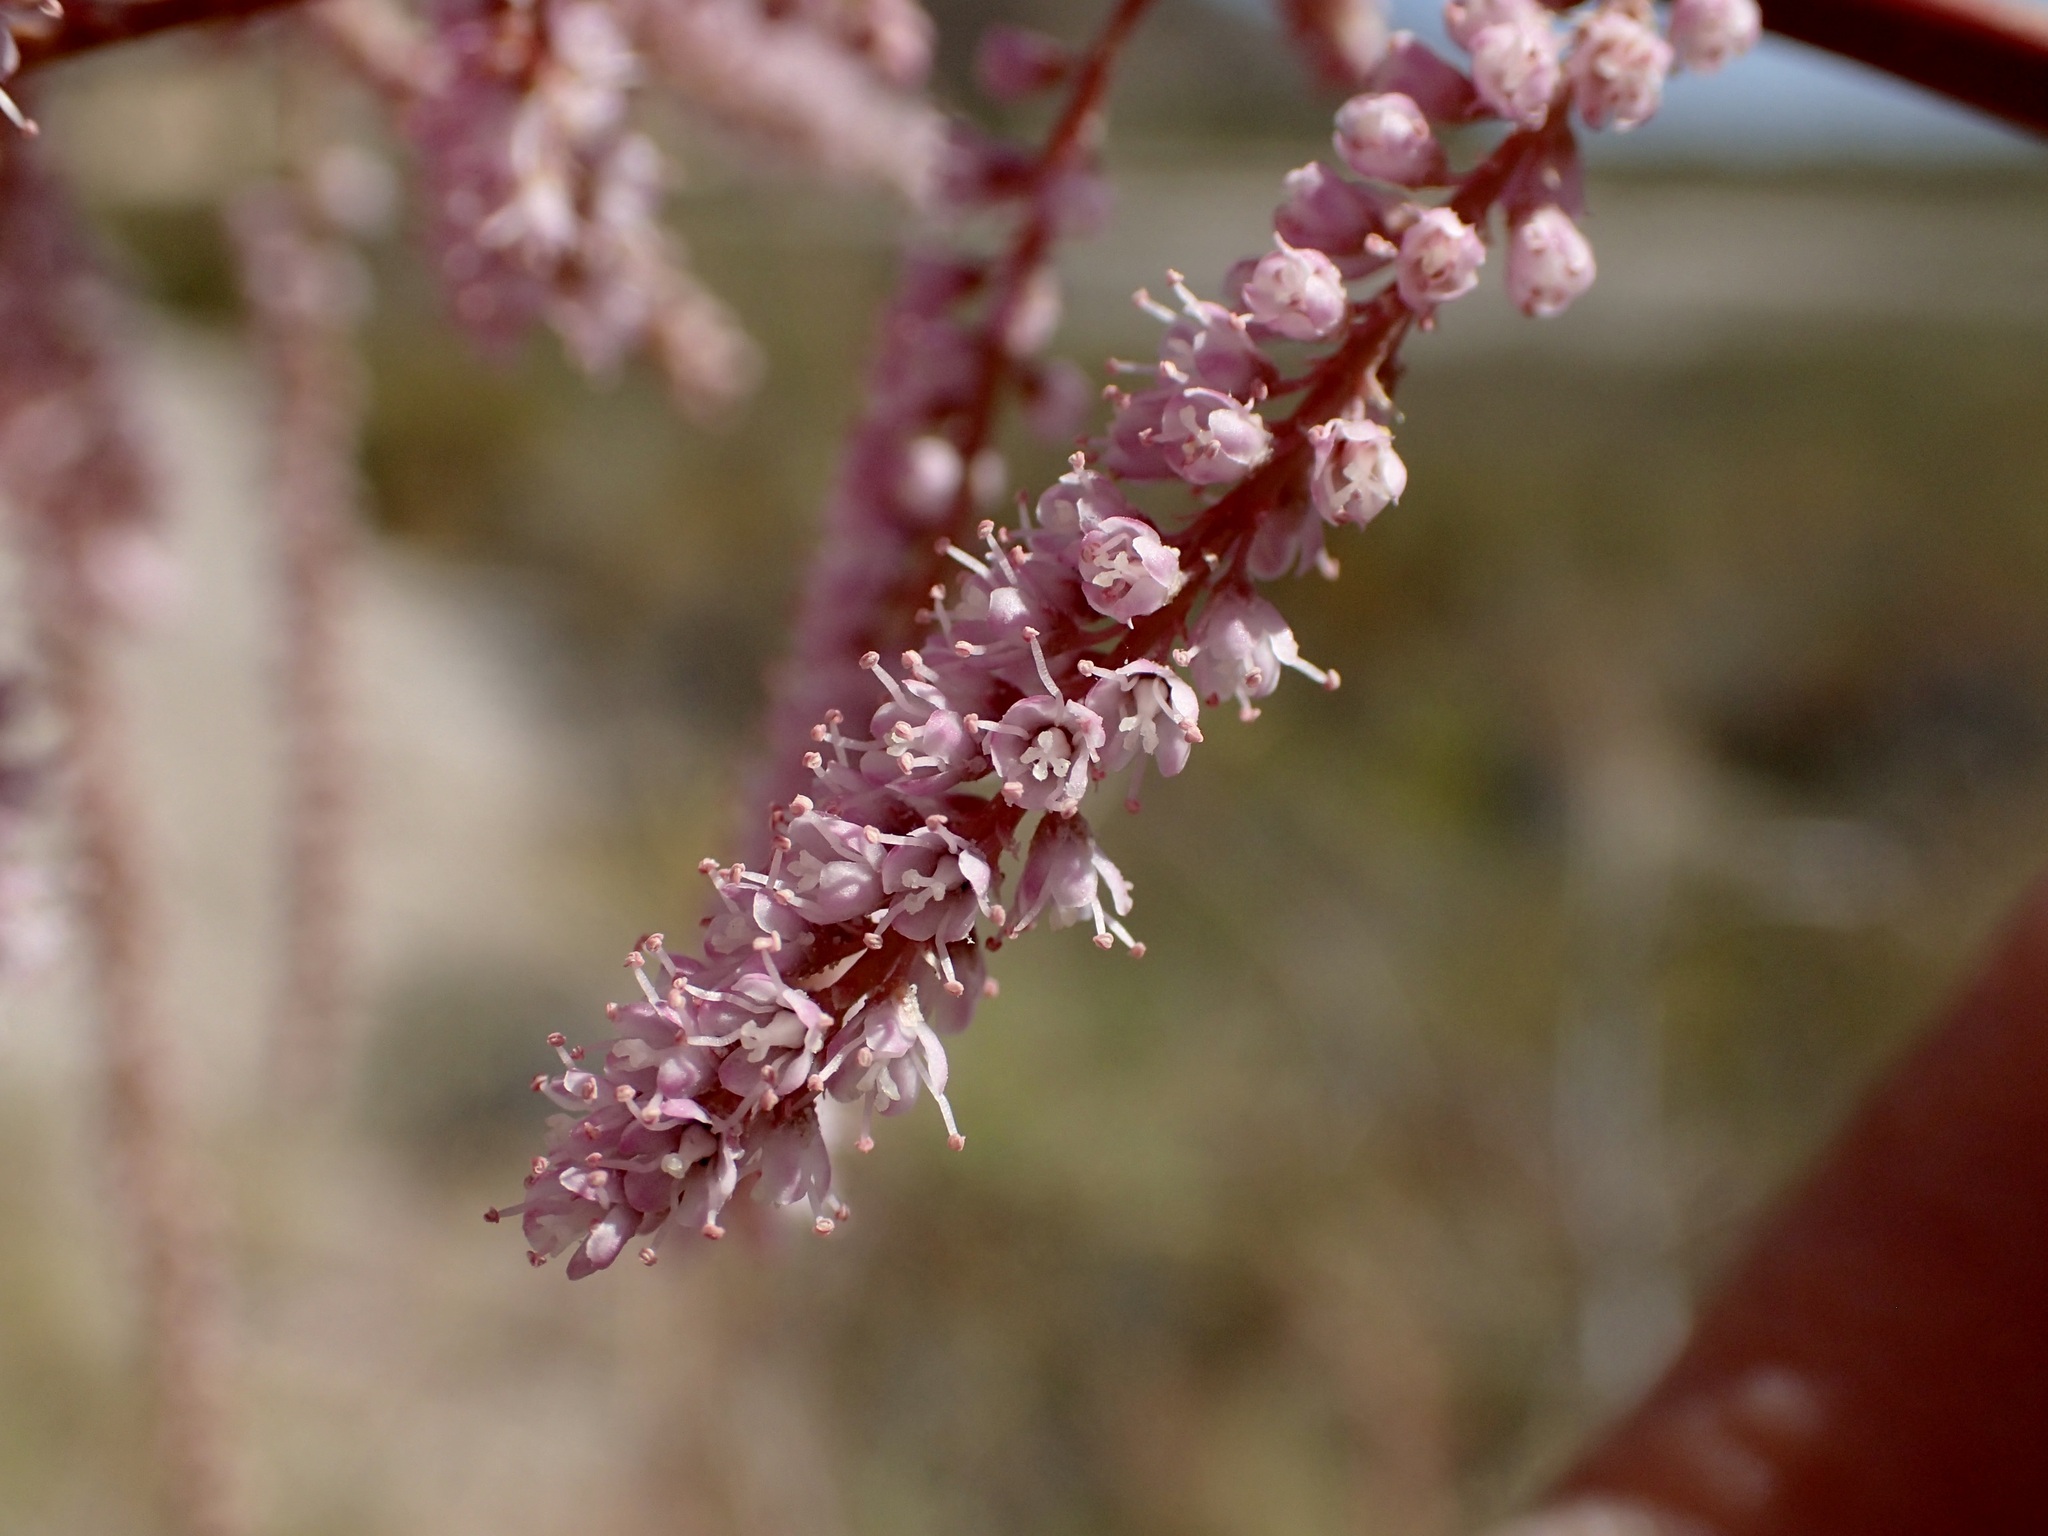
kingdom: Plantae
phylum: Tracheophyta
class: Magnoliopsida
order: Caryophyllales
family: Tamaricaceae
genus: Tamarix
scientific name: Tamarix
